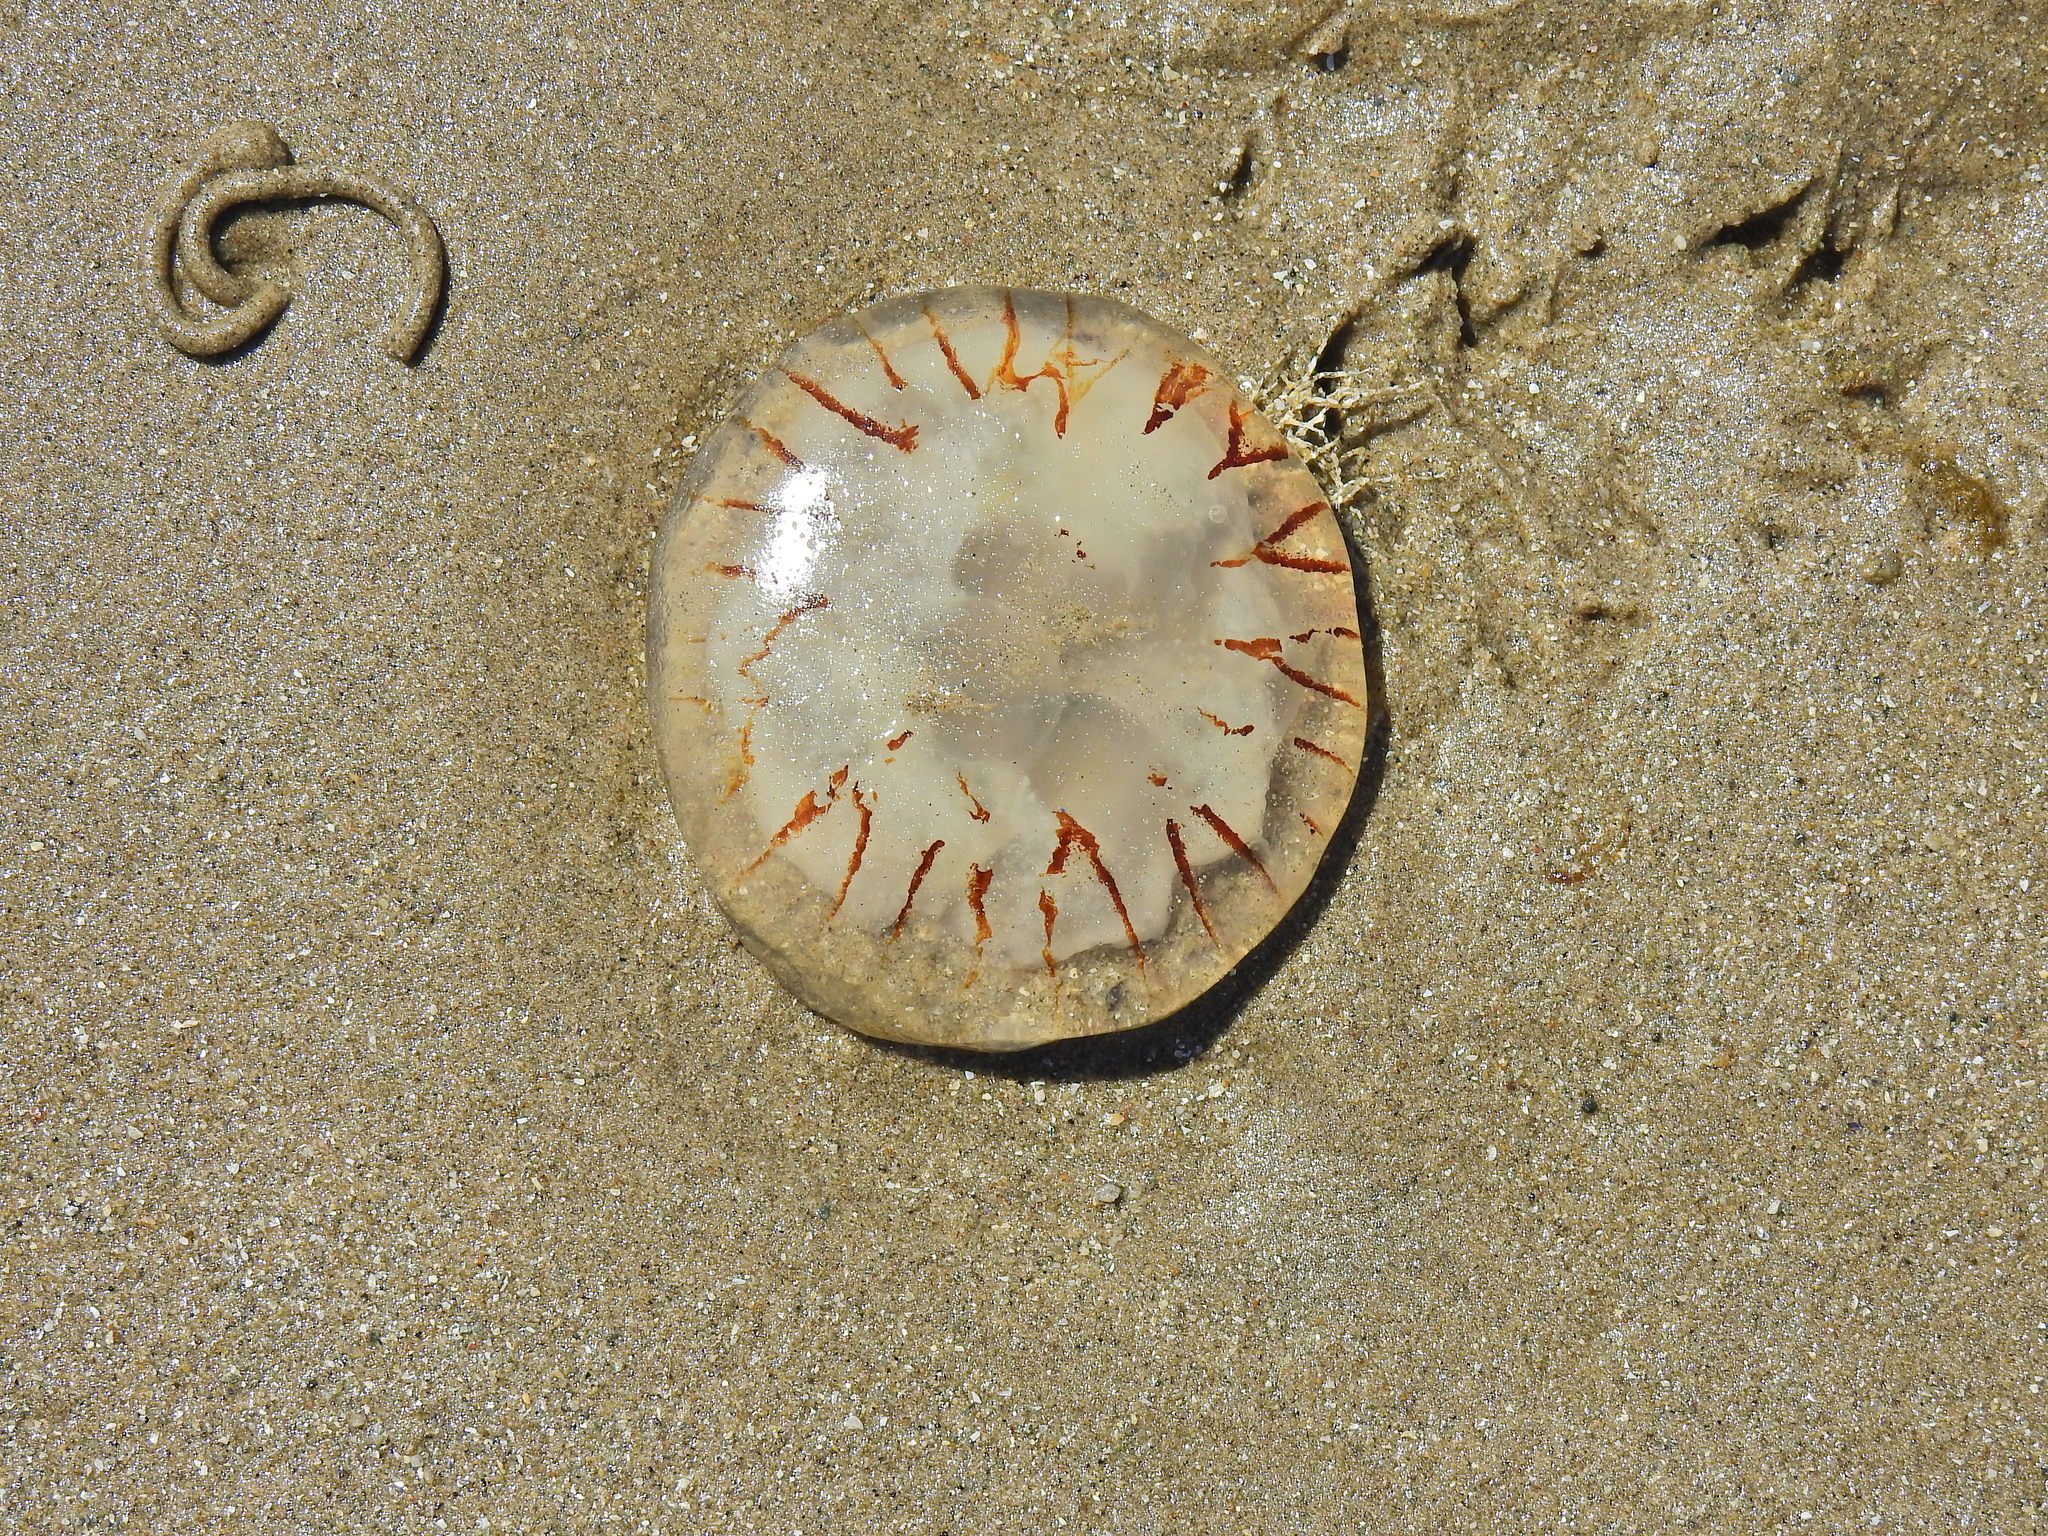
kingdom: Animalia
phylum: Cnidaria
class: Scyphozoa
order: Semaeostomeae
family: Pelagiidae
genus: Chrysaora
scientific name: Chrysaora hysoscella
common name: Compass jellyfish
